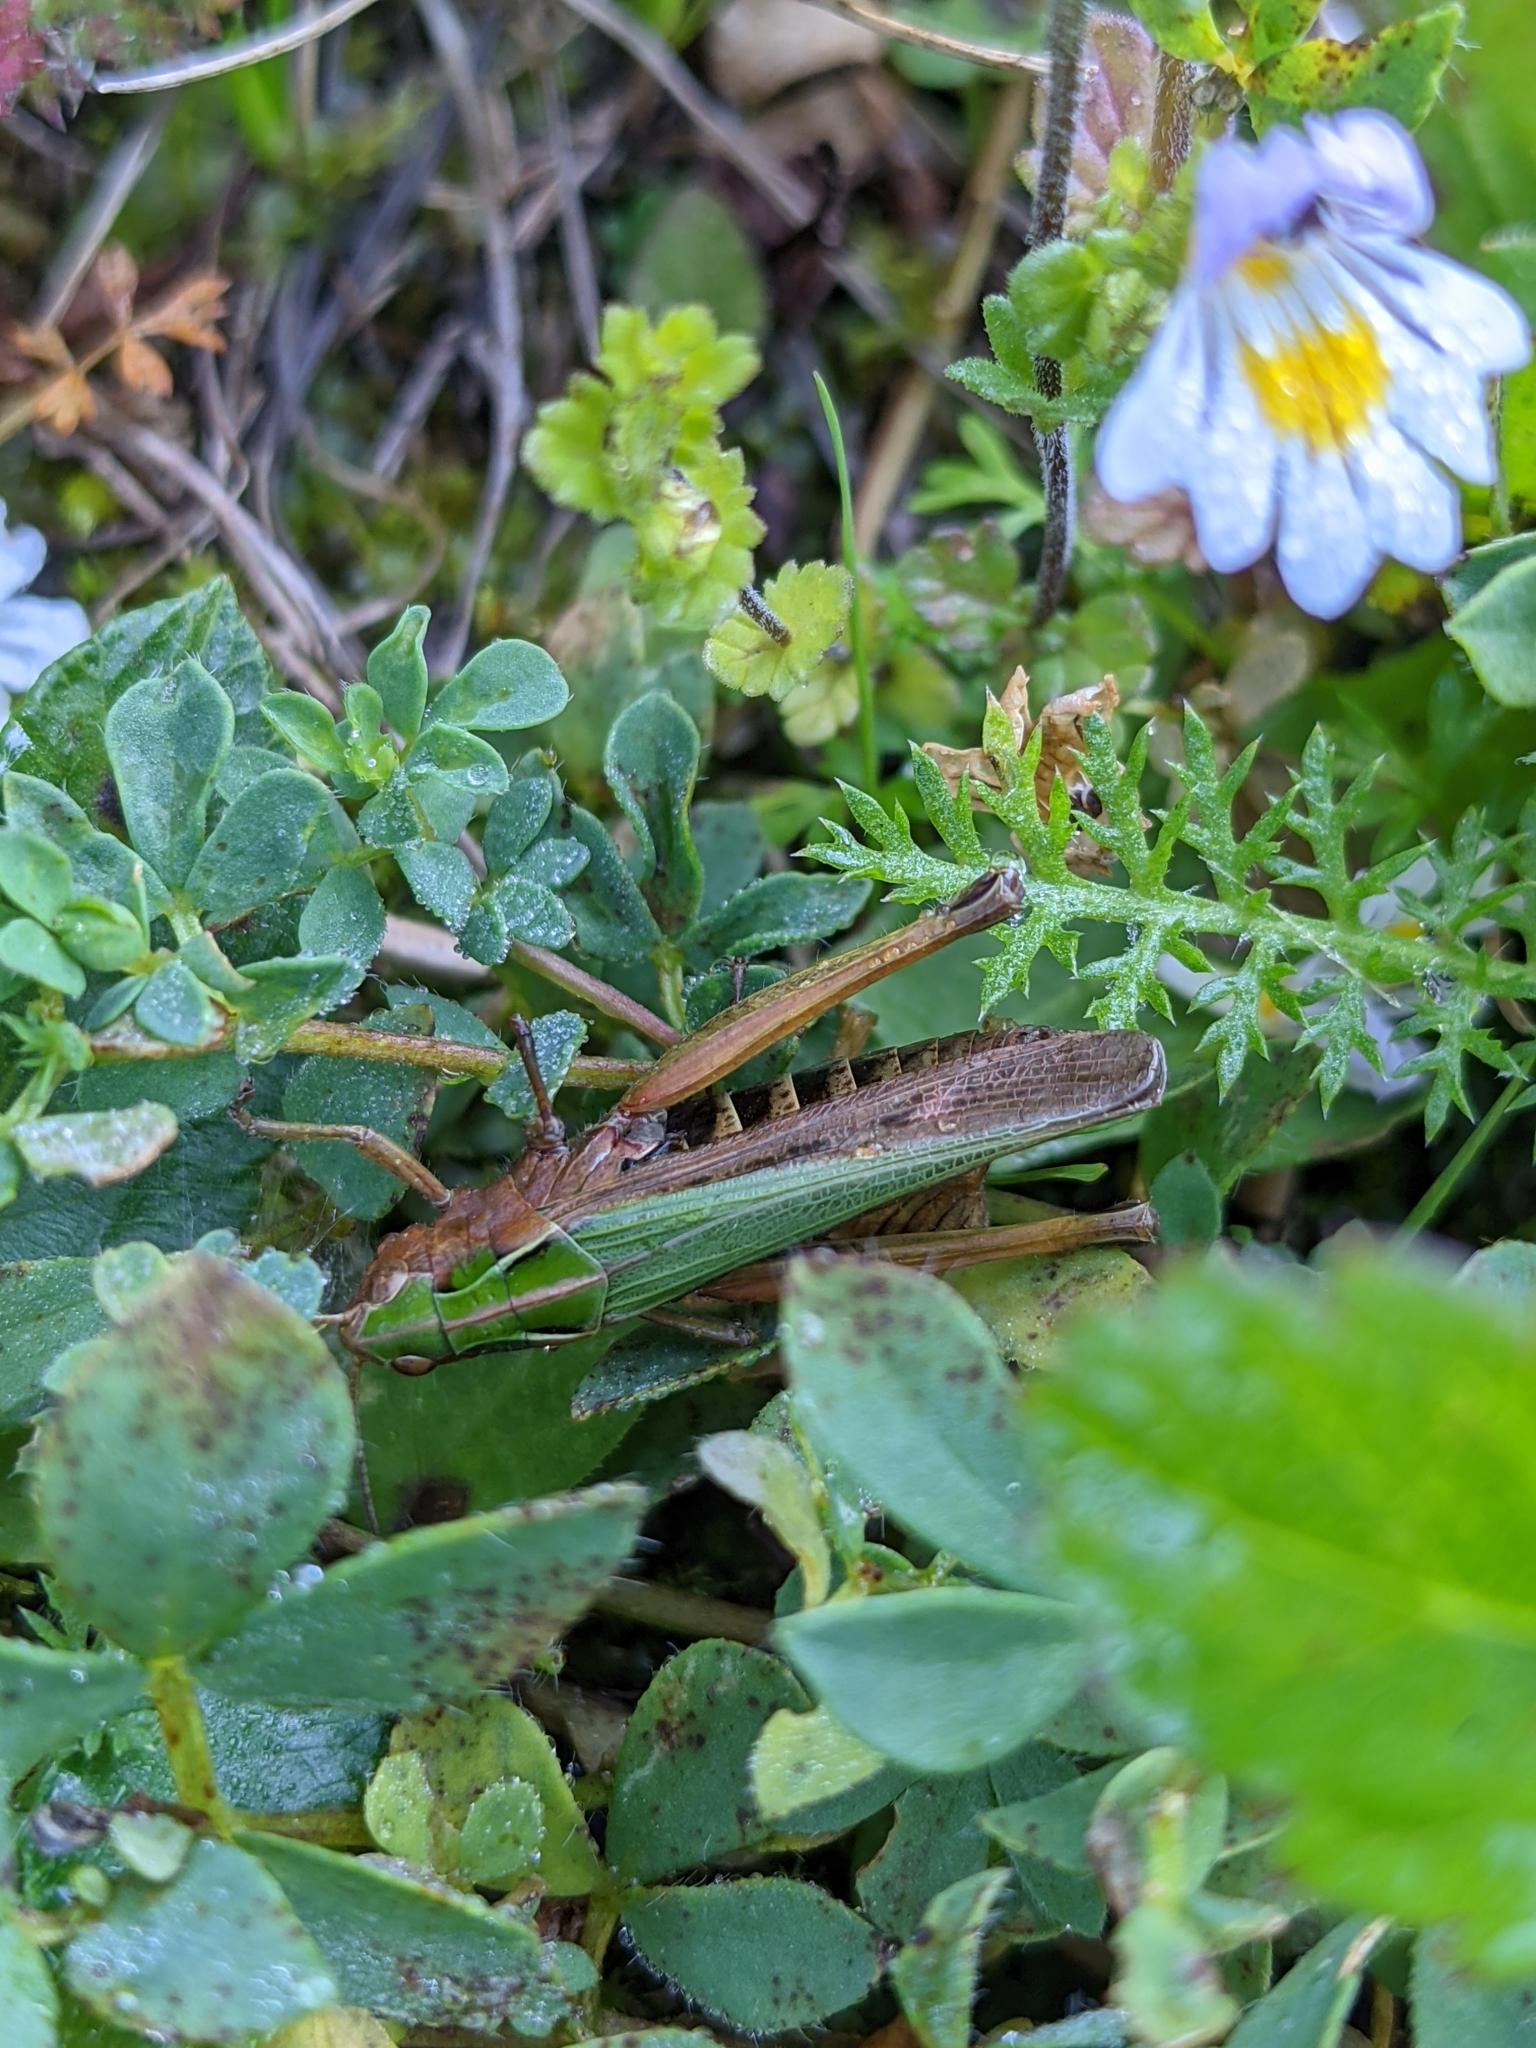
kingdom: Animalia
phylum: Arthropoda
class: Insecta
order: Orthoptera
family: Acrididae
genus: Omocestus
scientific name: Omocestus viridulus
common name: Common green grasshopper
